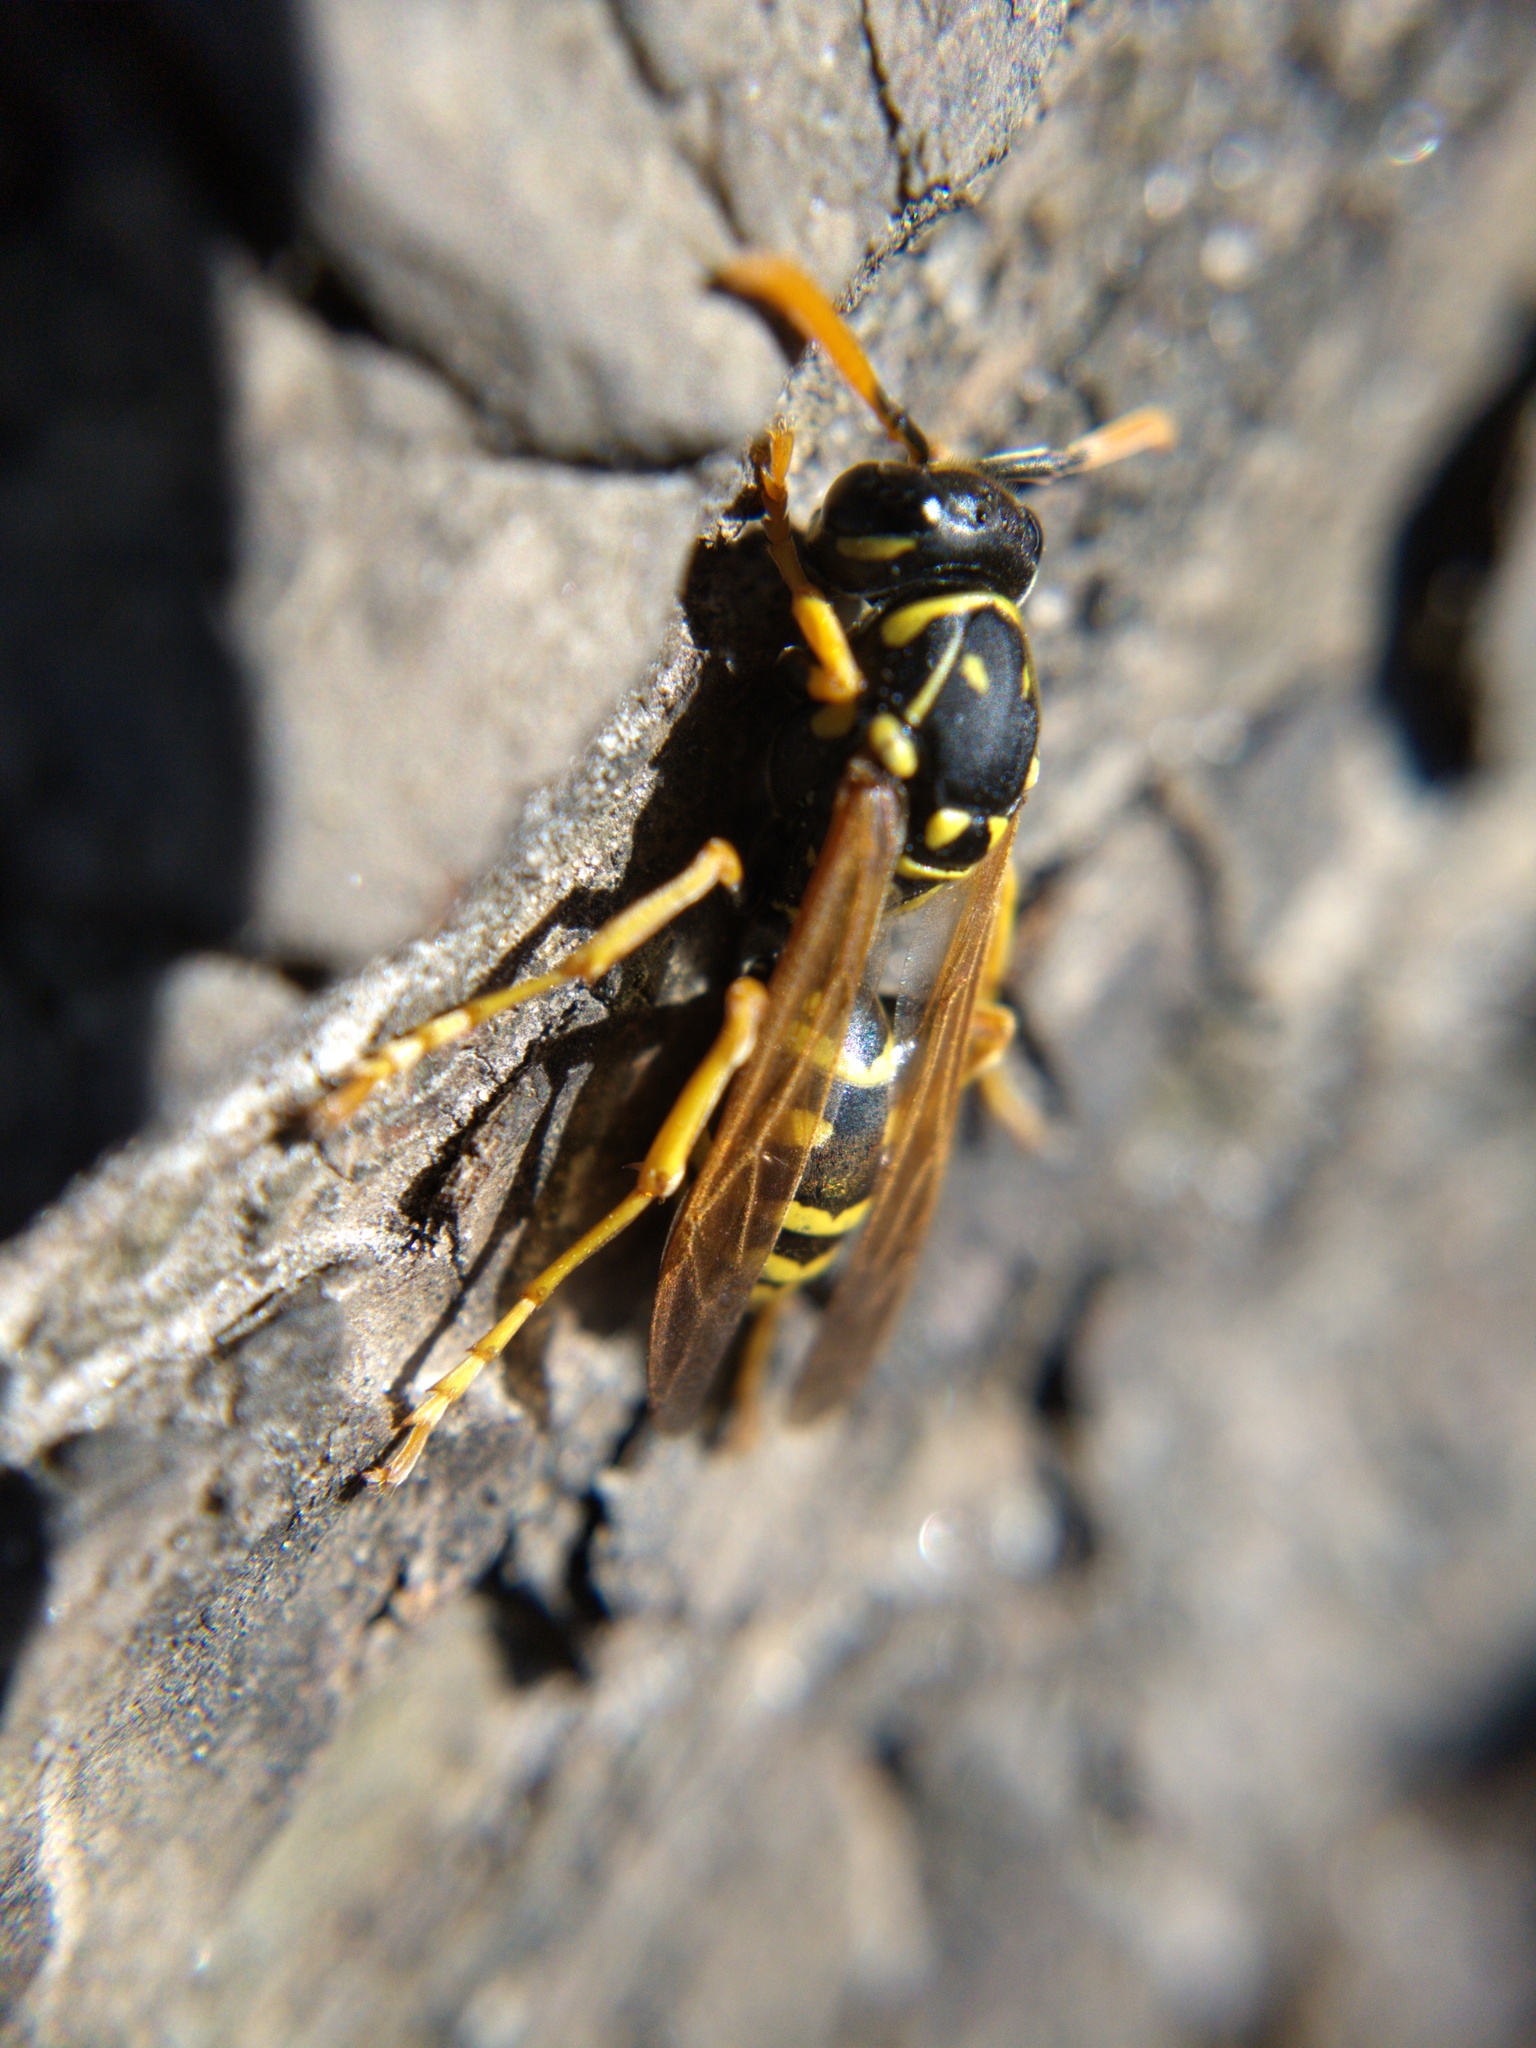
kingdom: Animalia
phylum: Arthropoda
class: Insecta
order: Hymenoptera
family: Eumenidae
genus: Polistes
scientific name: Polistes dominula
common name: Paper wasp
